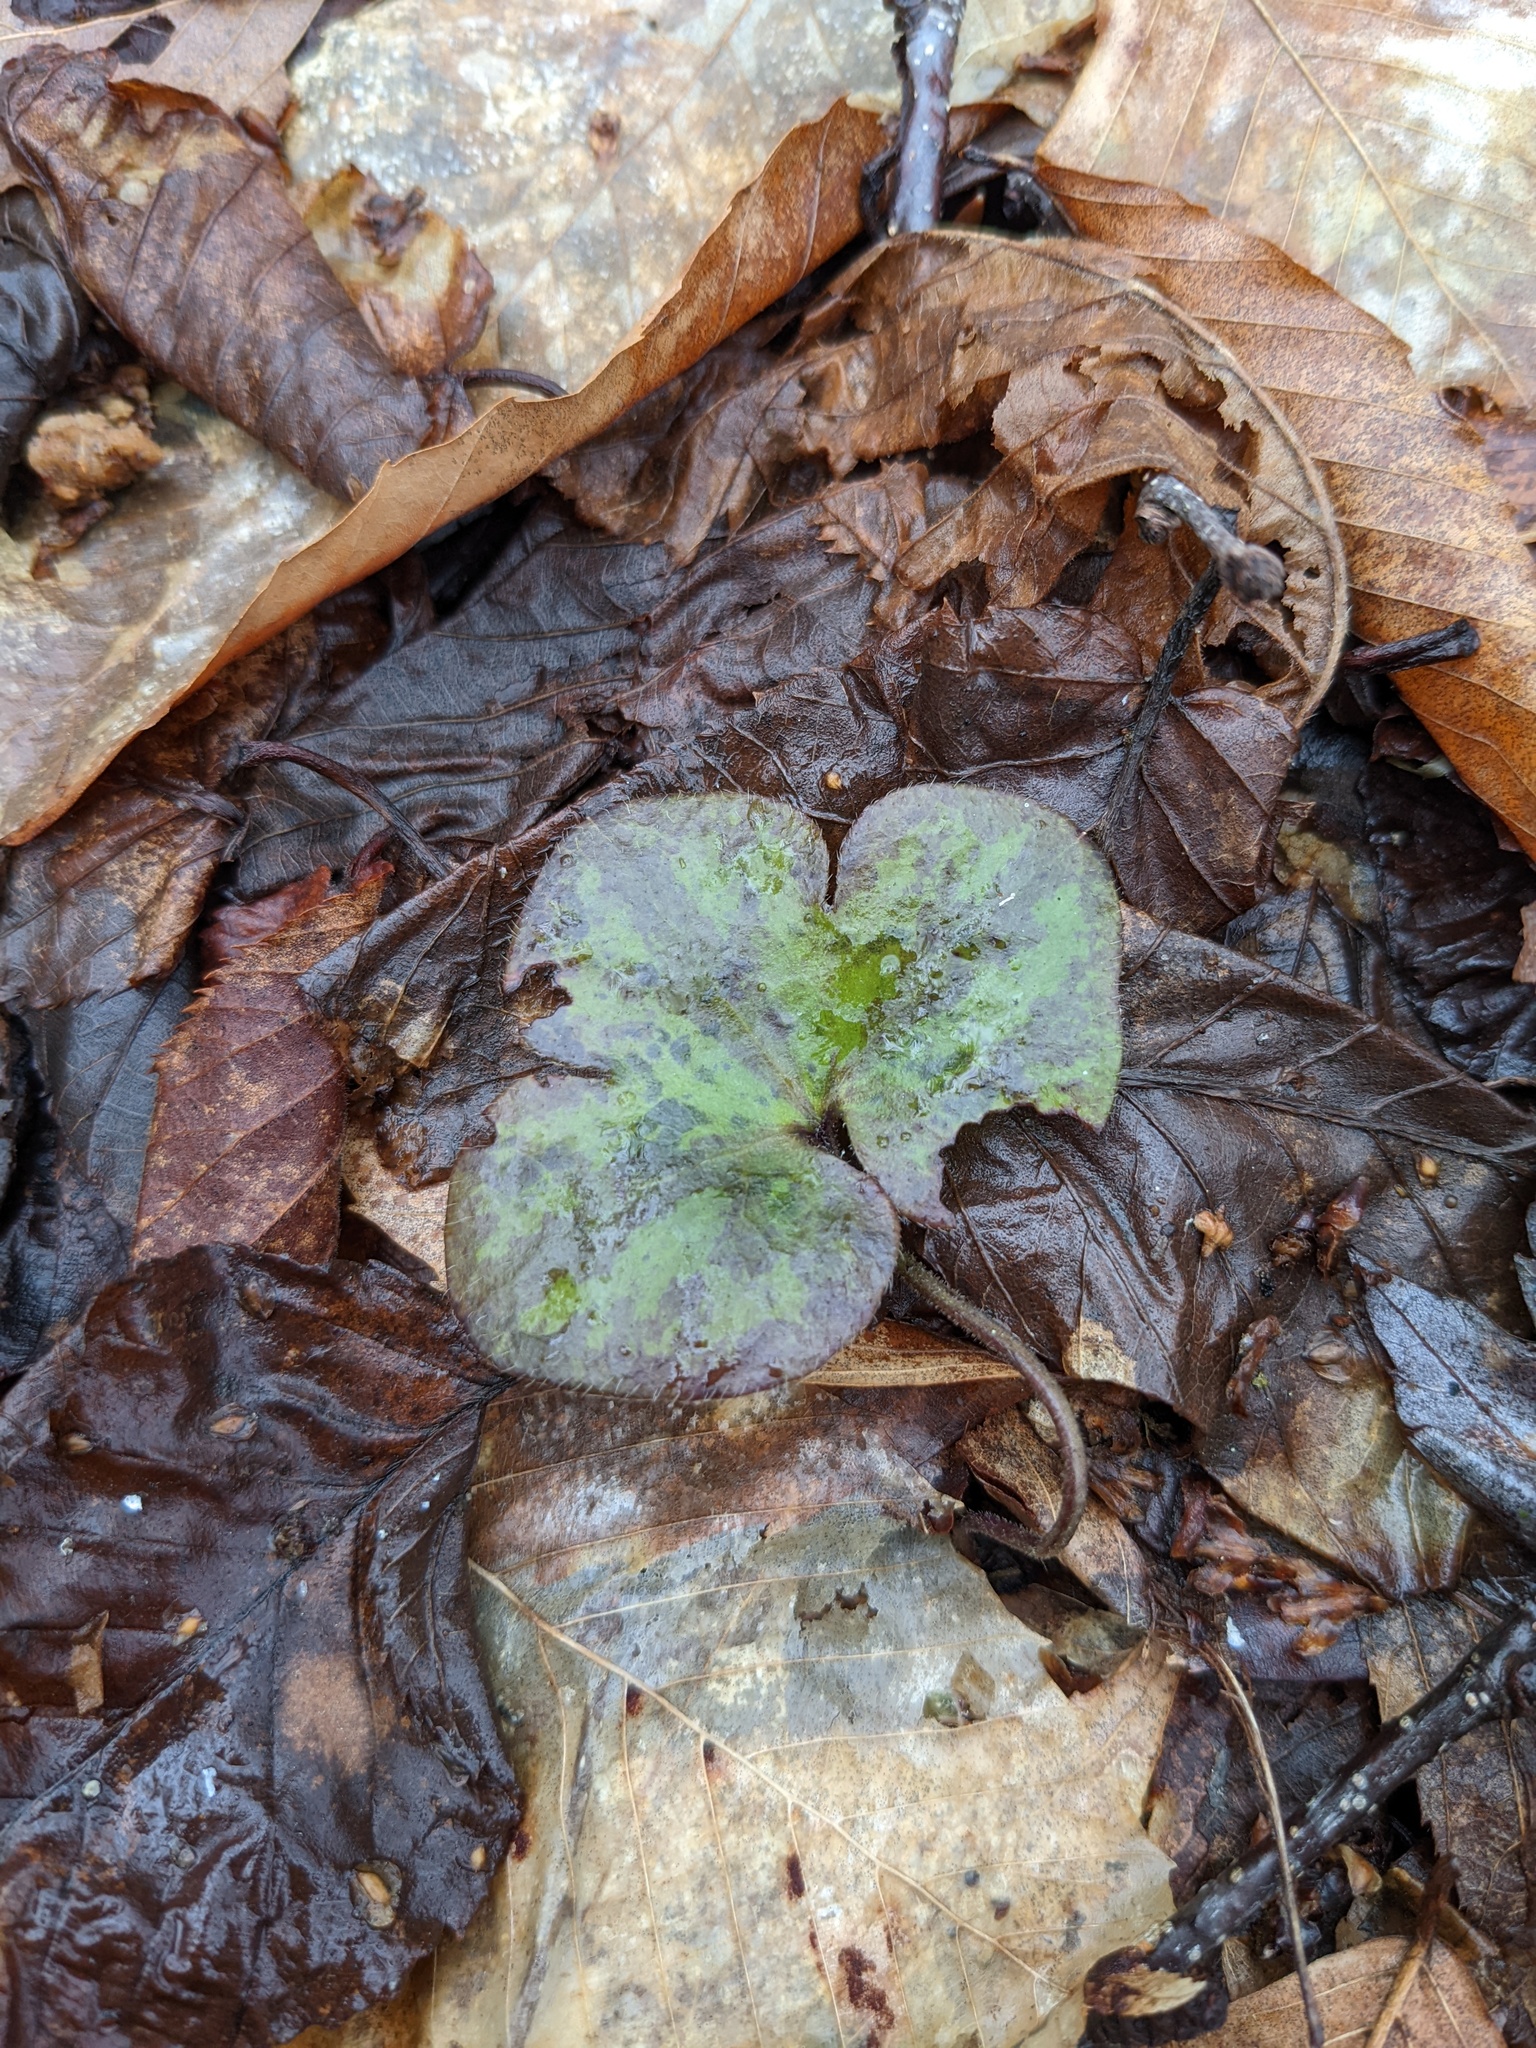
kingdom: Plantae
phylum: Tracheophyta
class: Magnoliopsida
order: Ranunculales
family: Ranunculaceae
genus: Hepatica
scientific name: Hepatica americana
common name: American hepatica
